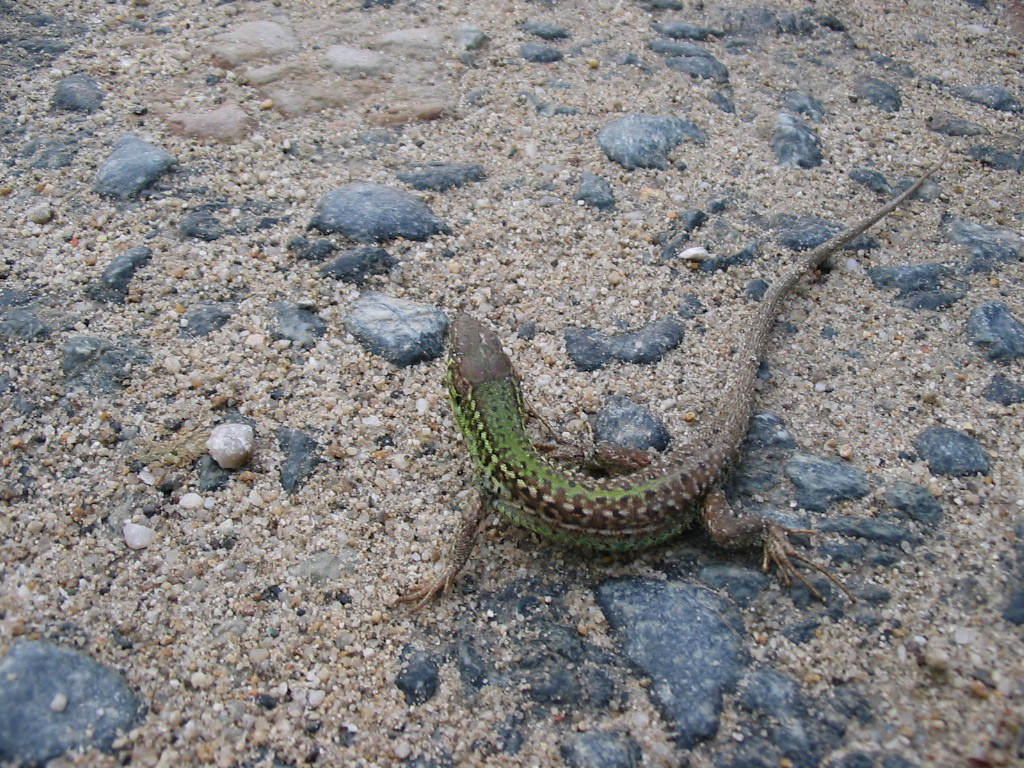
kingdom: Animalia
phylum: Chordata
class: Squamata
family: Lacertidae
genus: Podarcis
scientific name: Podarcis tauricus
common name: Balkan wall lizard
